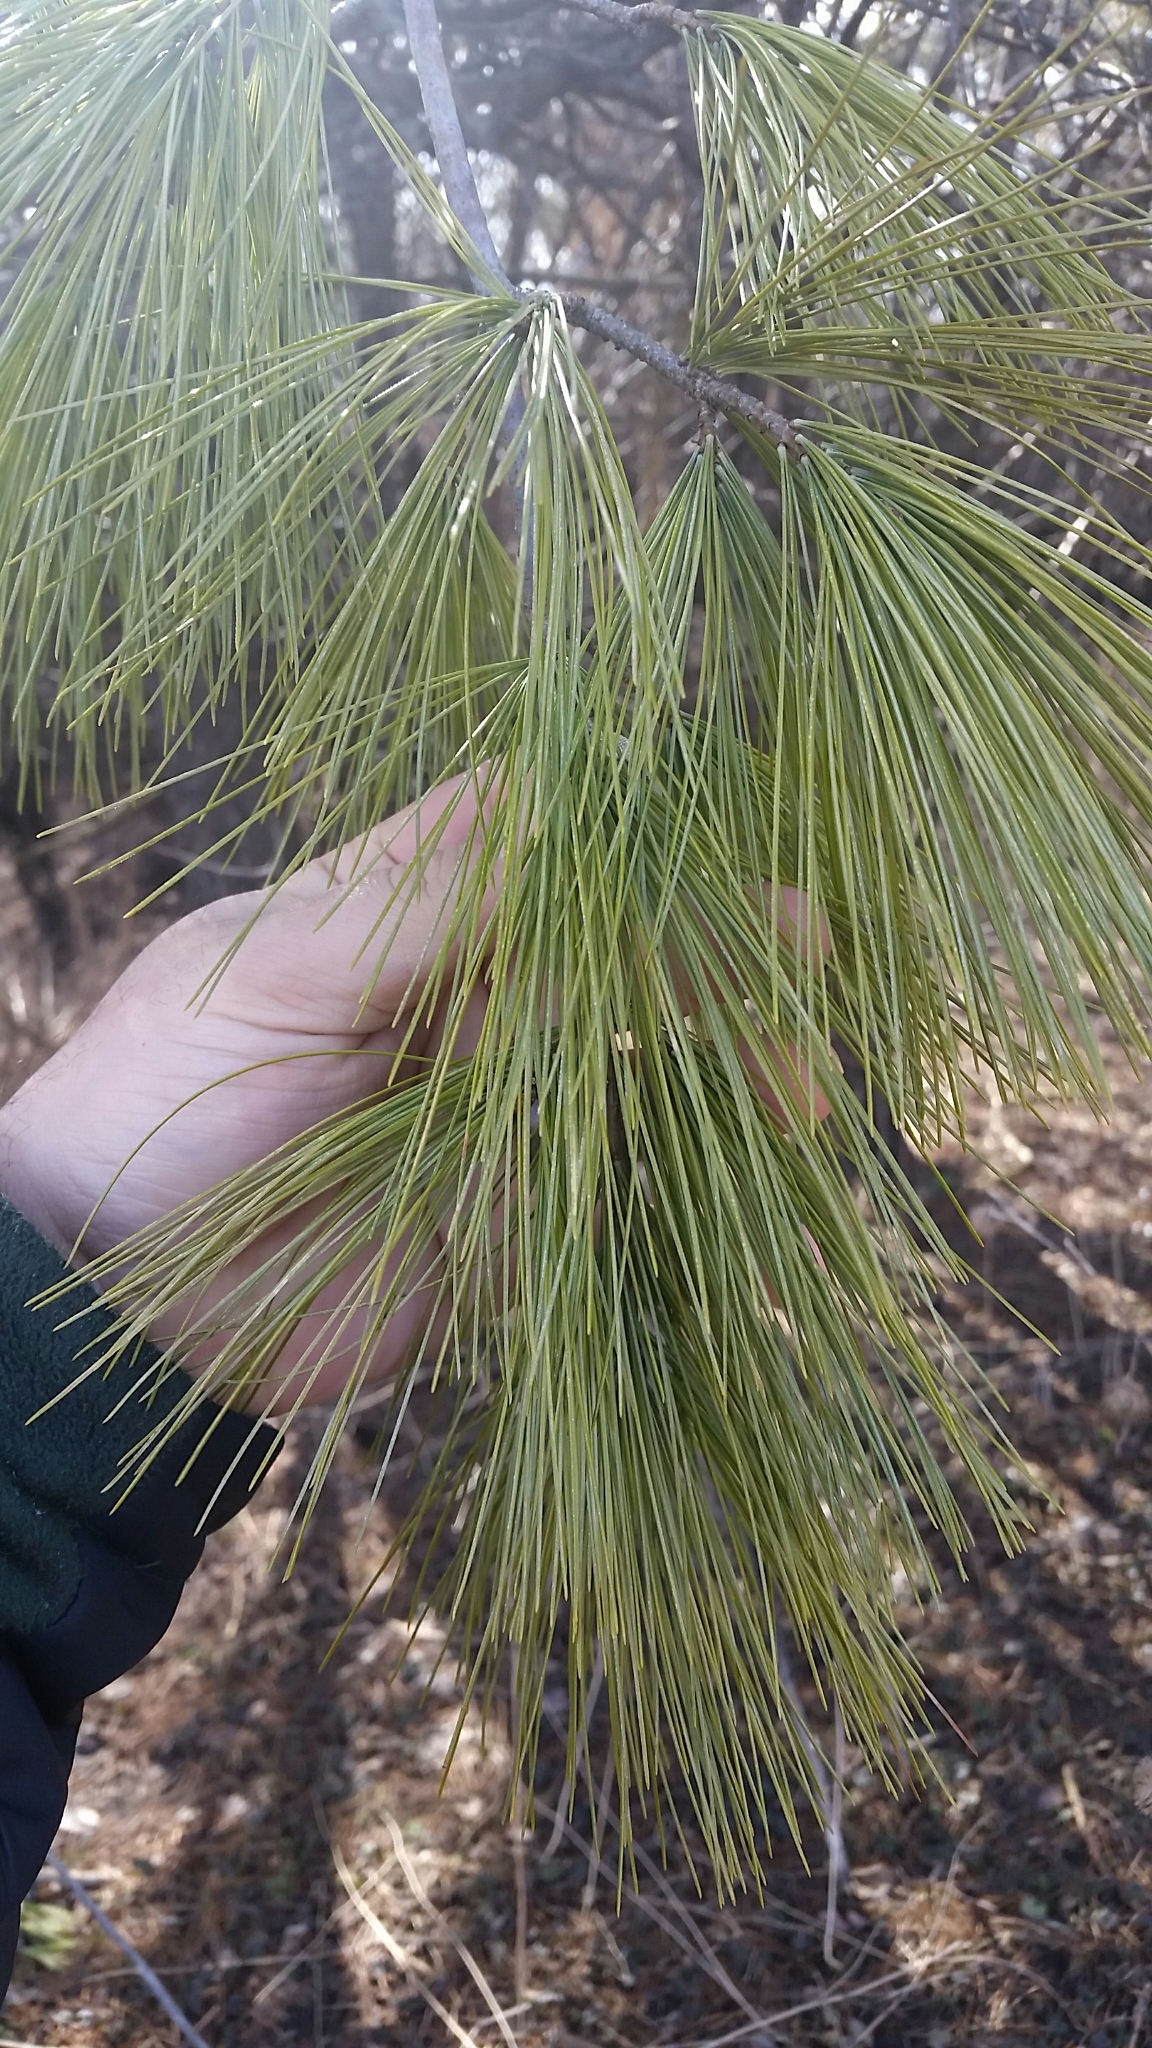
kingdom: Plantae
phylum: Tracheophyta
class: Pinopsida
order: Pinales
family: Pinaceae
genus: Pinus
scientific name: Pinus strobus
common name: Weymouth pine
